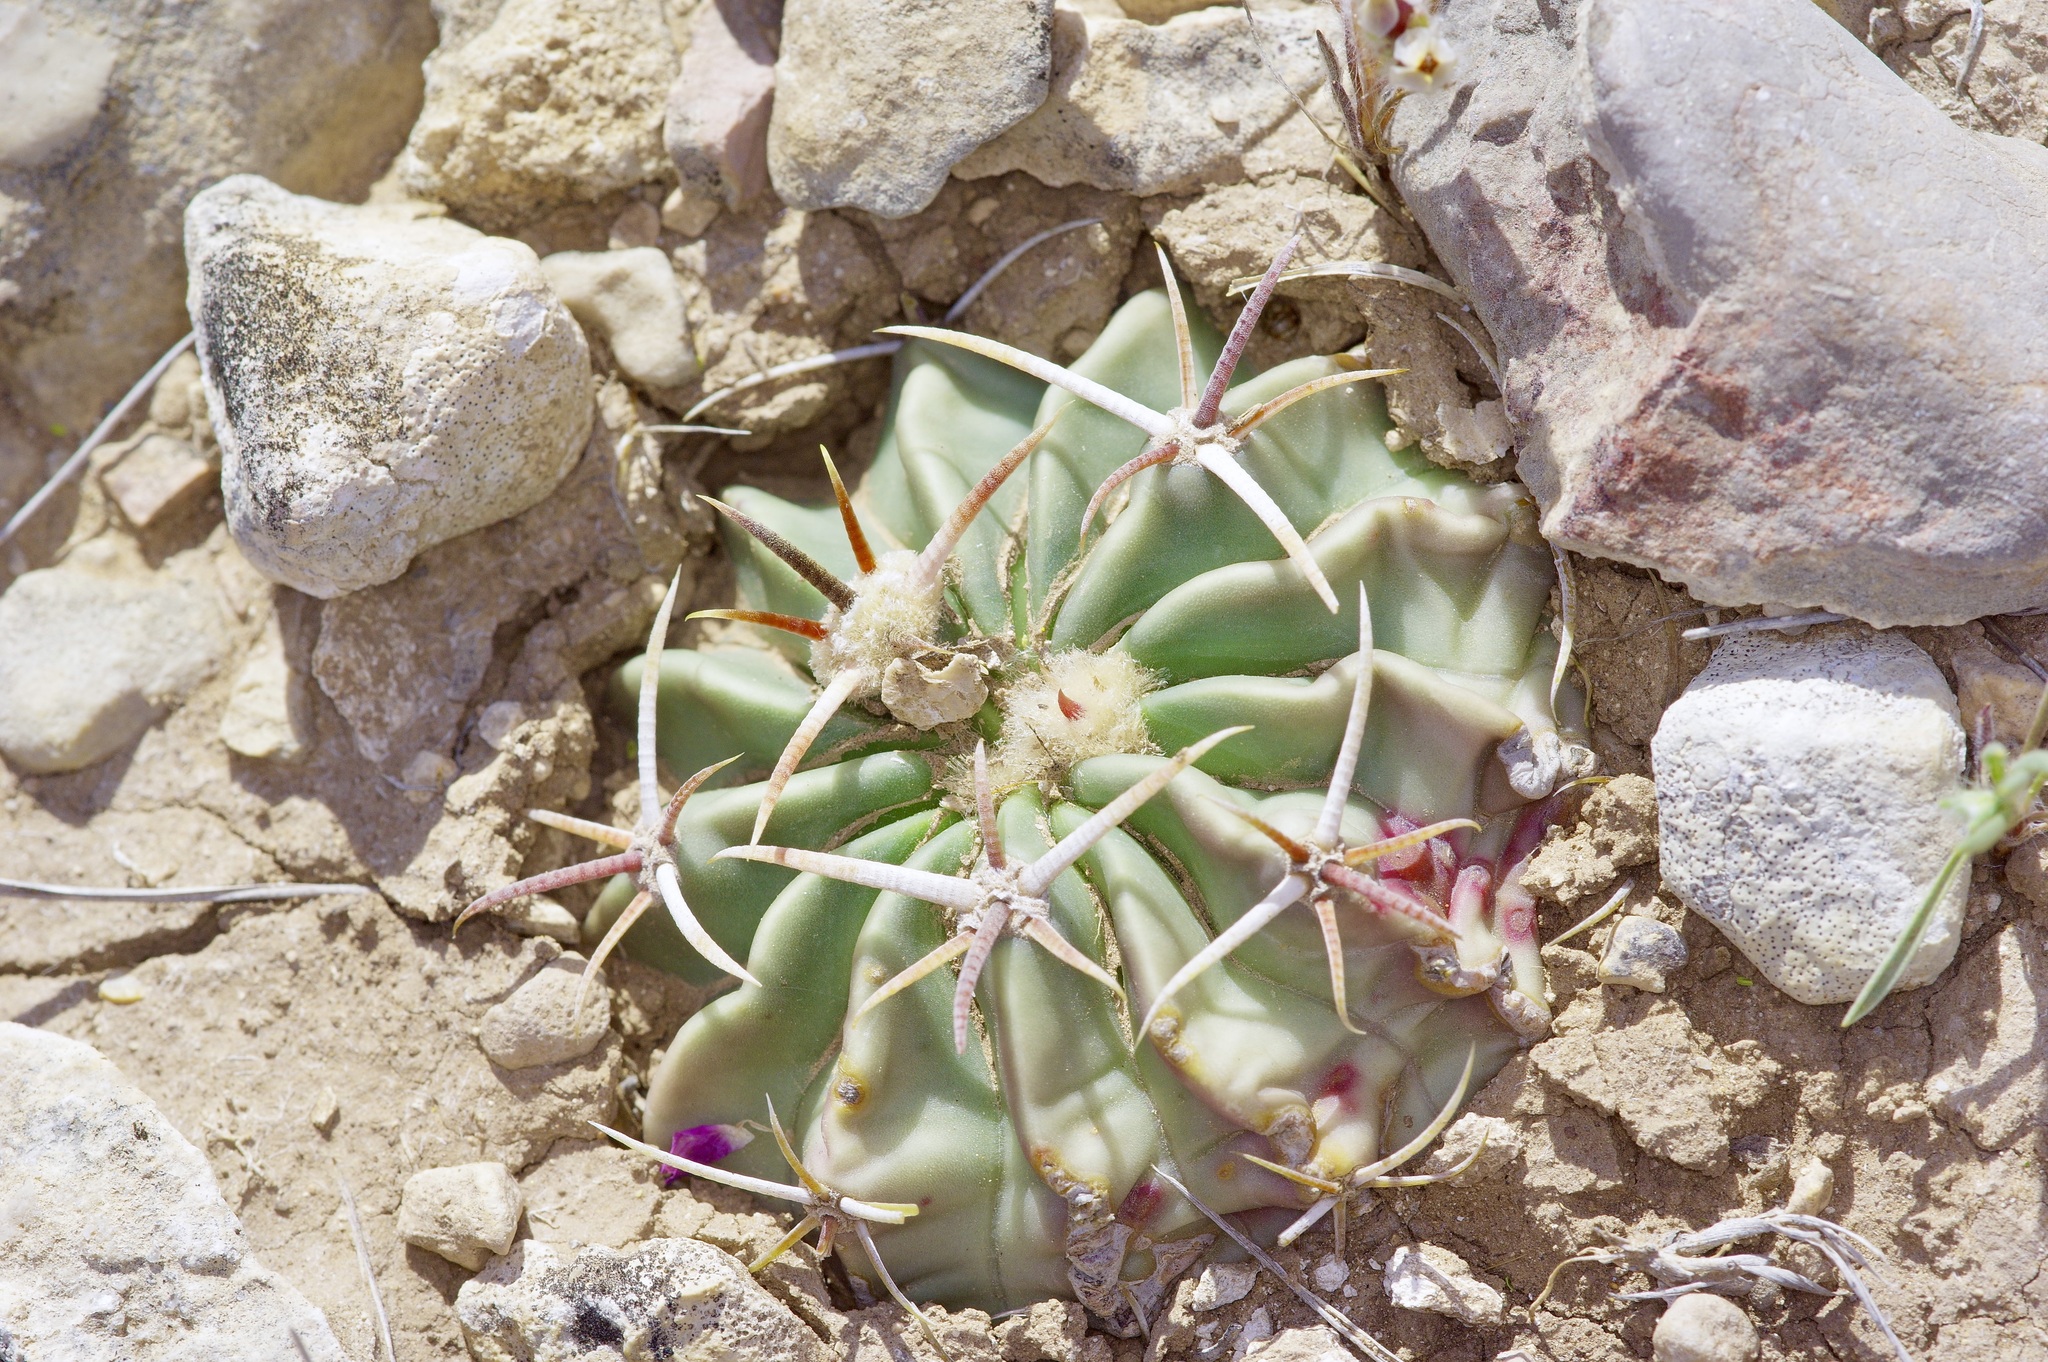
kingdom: Plantae
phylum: Tracheophyta
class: Magnoliopsida
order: Caryophyllales
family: Cactaceae
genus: Echinocactus
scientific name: Echinocactus texensis
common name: Devil's pincushion
